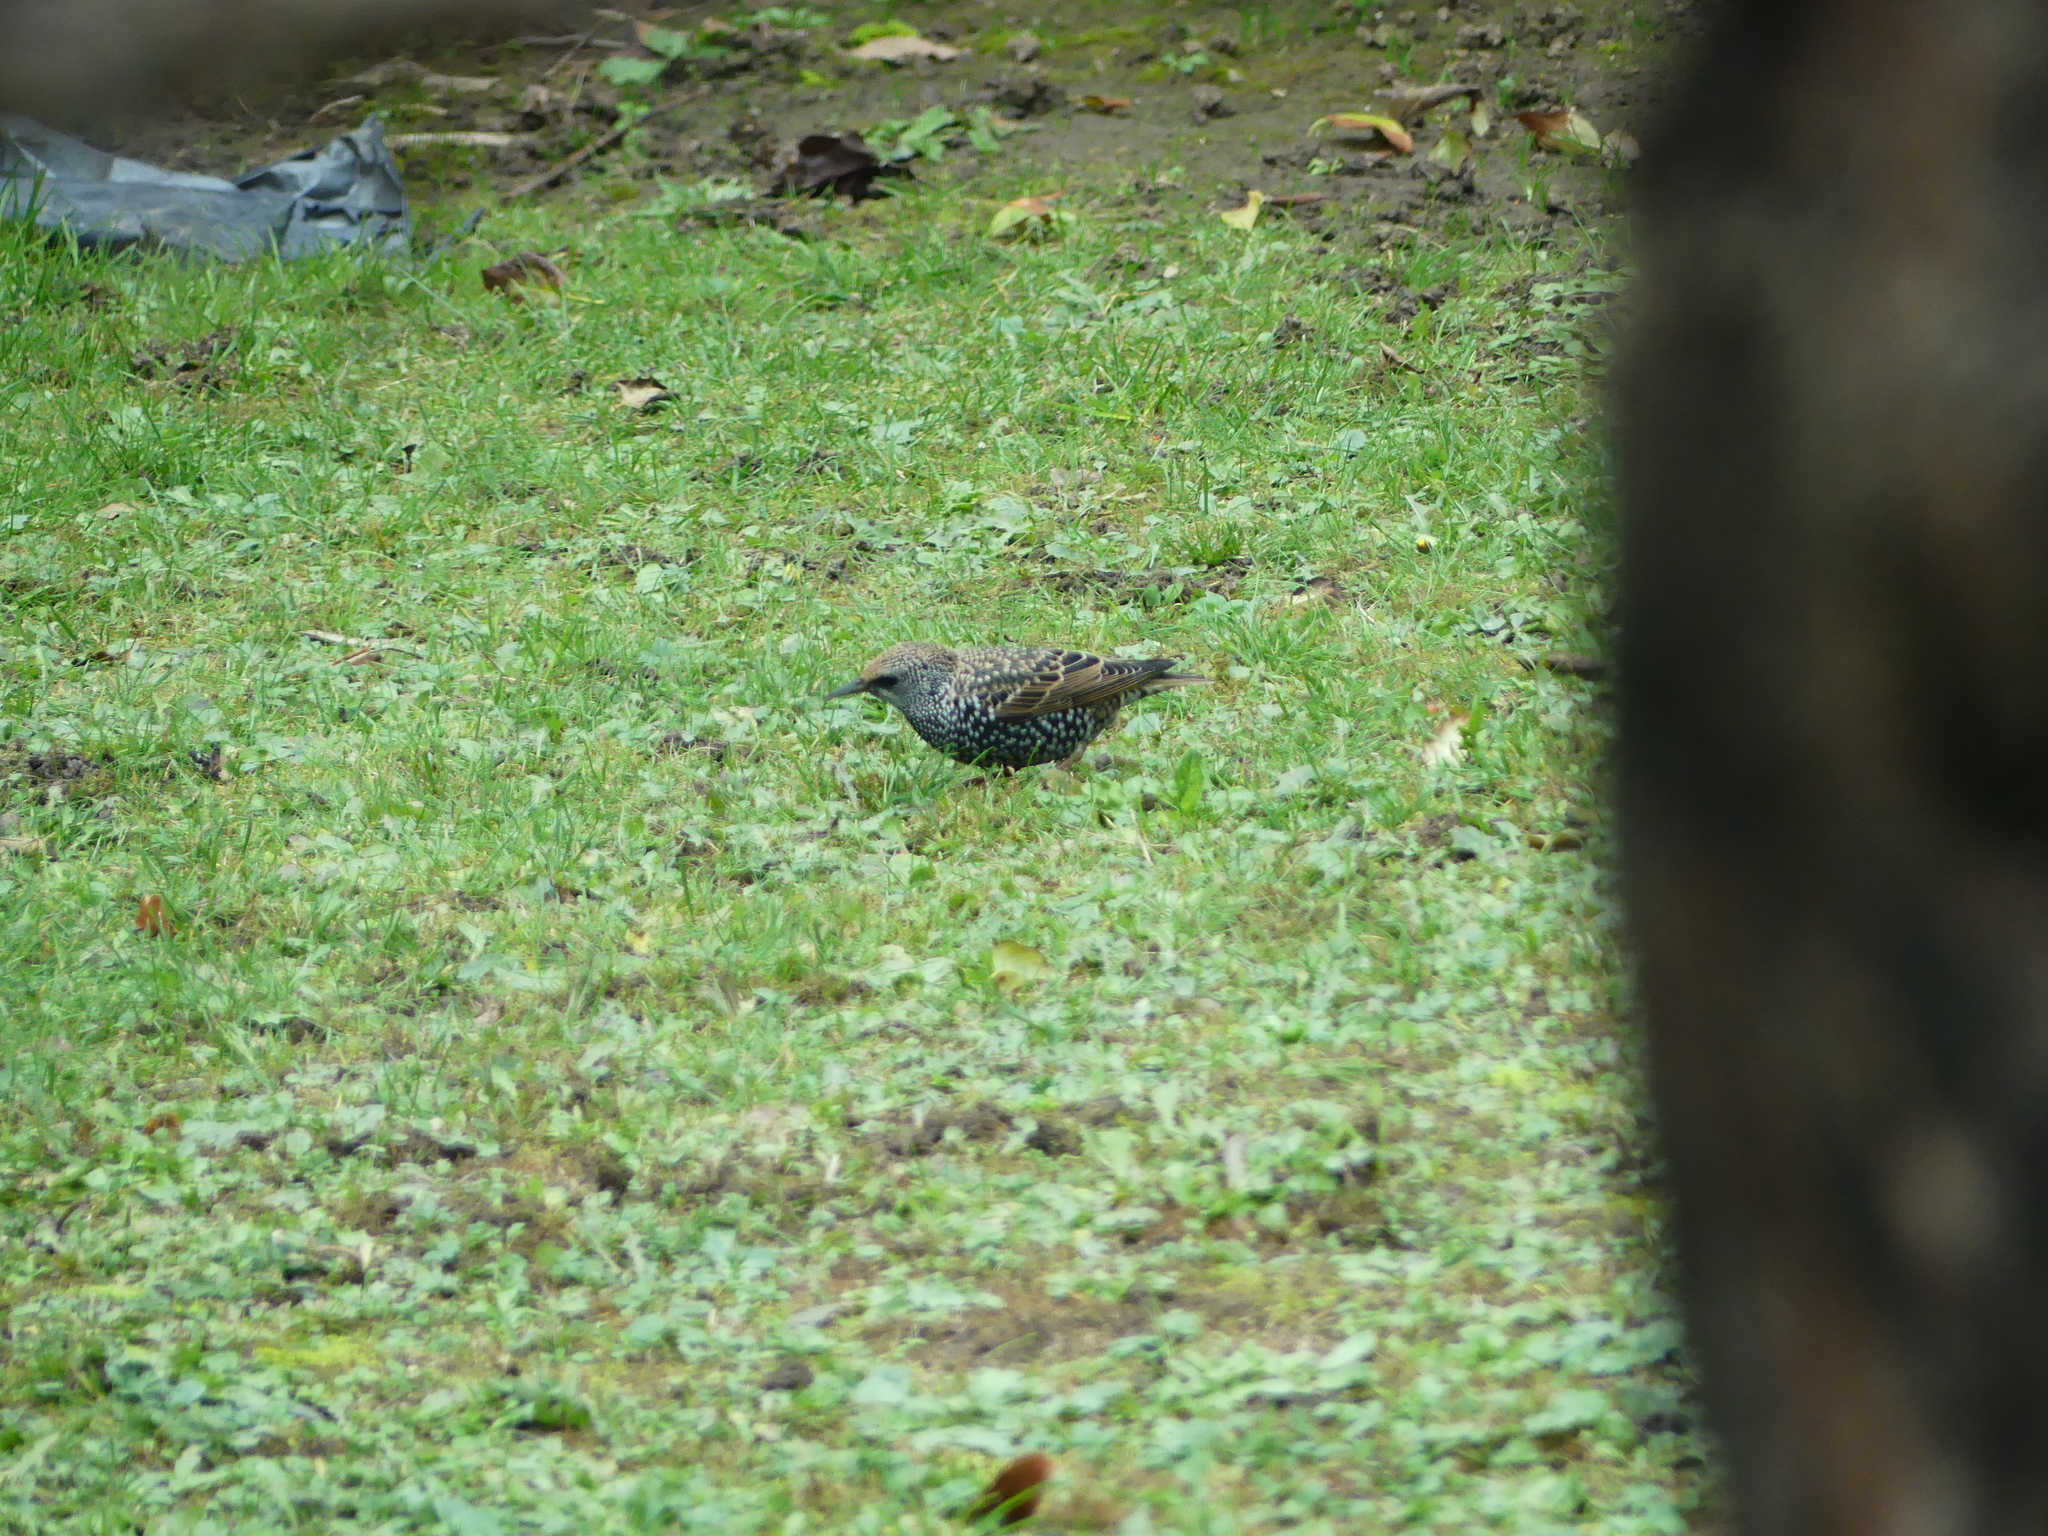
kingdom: Animalia
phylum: Chordata
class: Aves
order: Passeriformes
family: Sturnidae
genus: Sturnus
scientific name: Sturnus vulgaris
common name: Common starling
